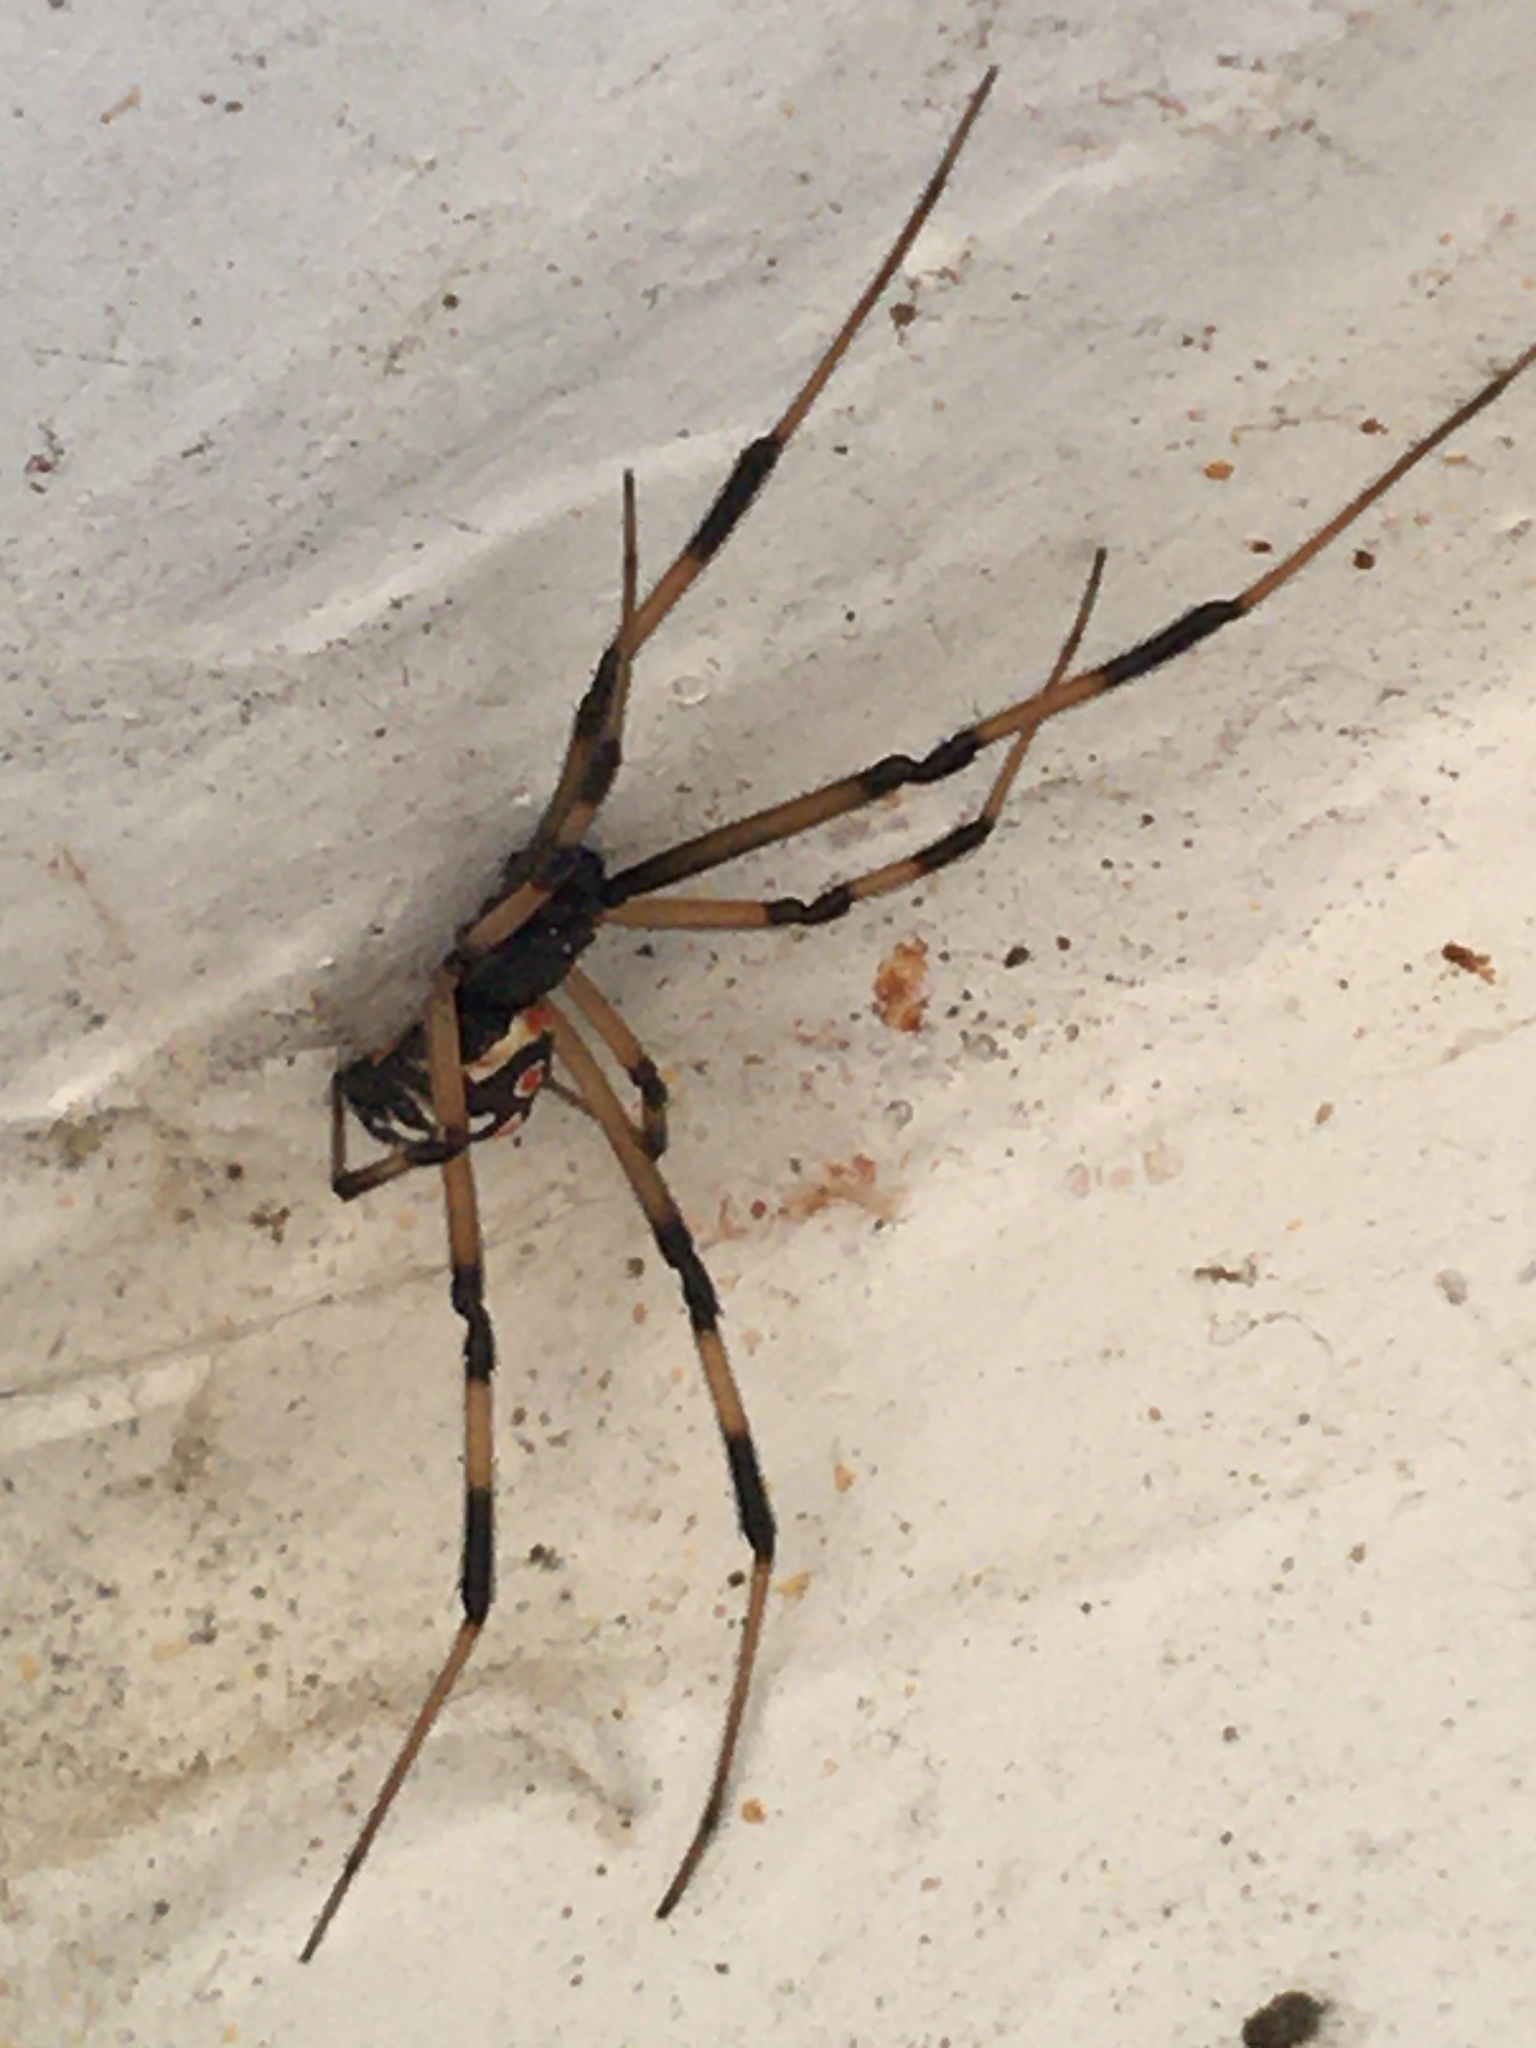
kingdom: Animalia
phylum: Arthropoda
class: Arachnida
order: Araneae
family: Theridiidae
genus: Latrodectus
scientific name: Latrodectus mactans
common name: Cobweb spiders
